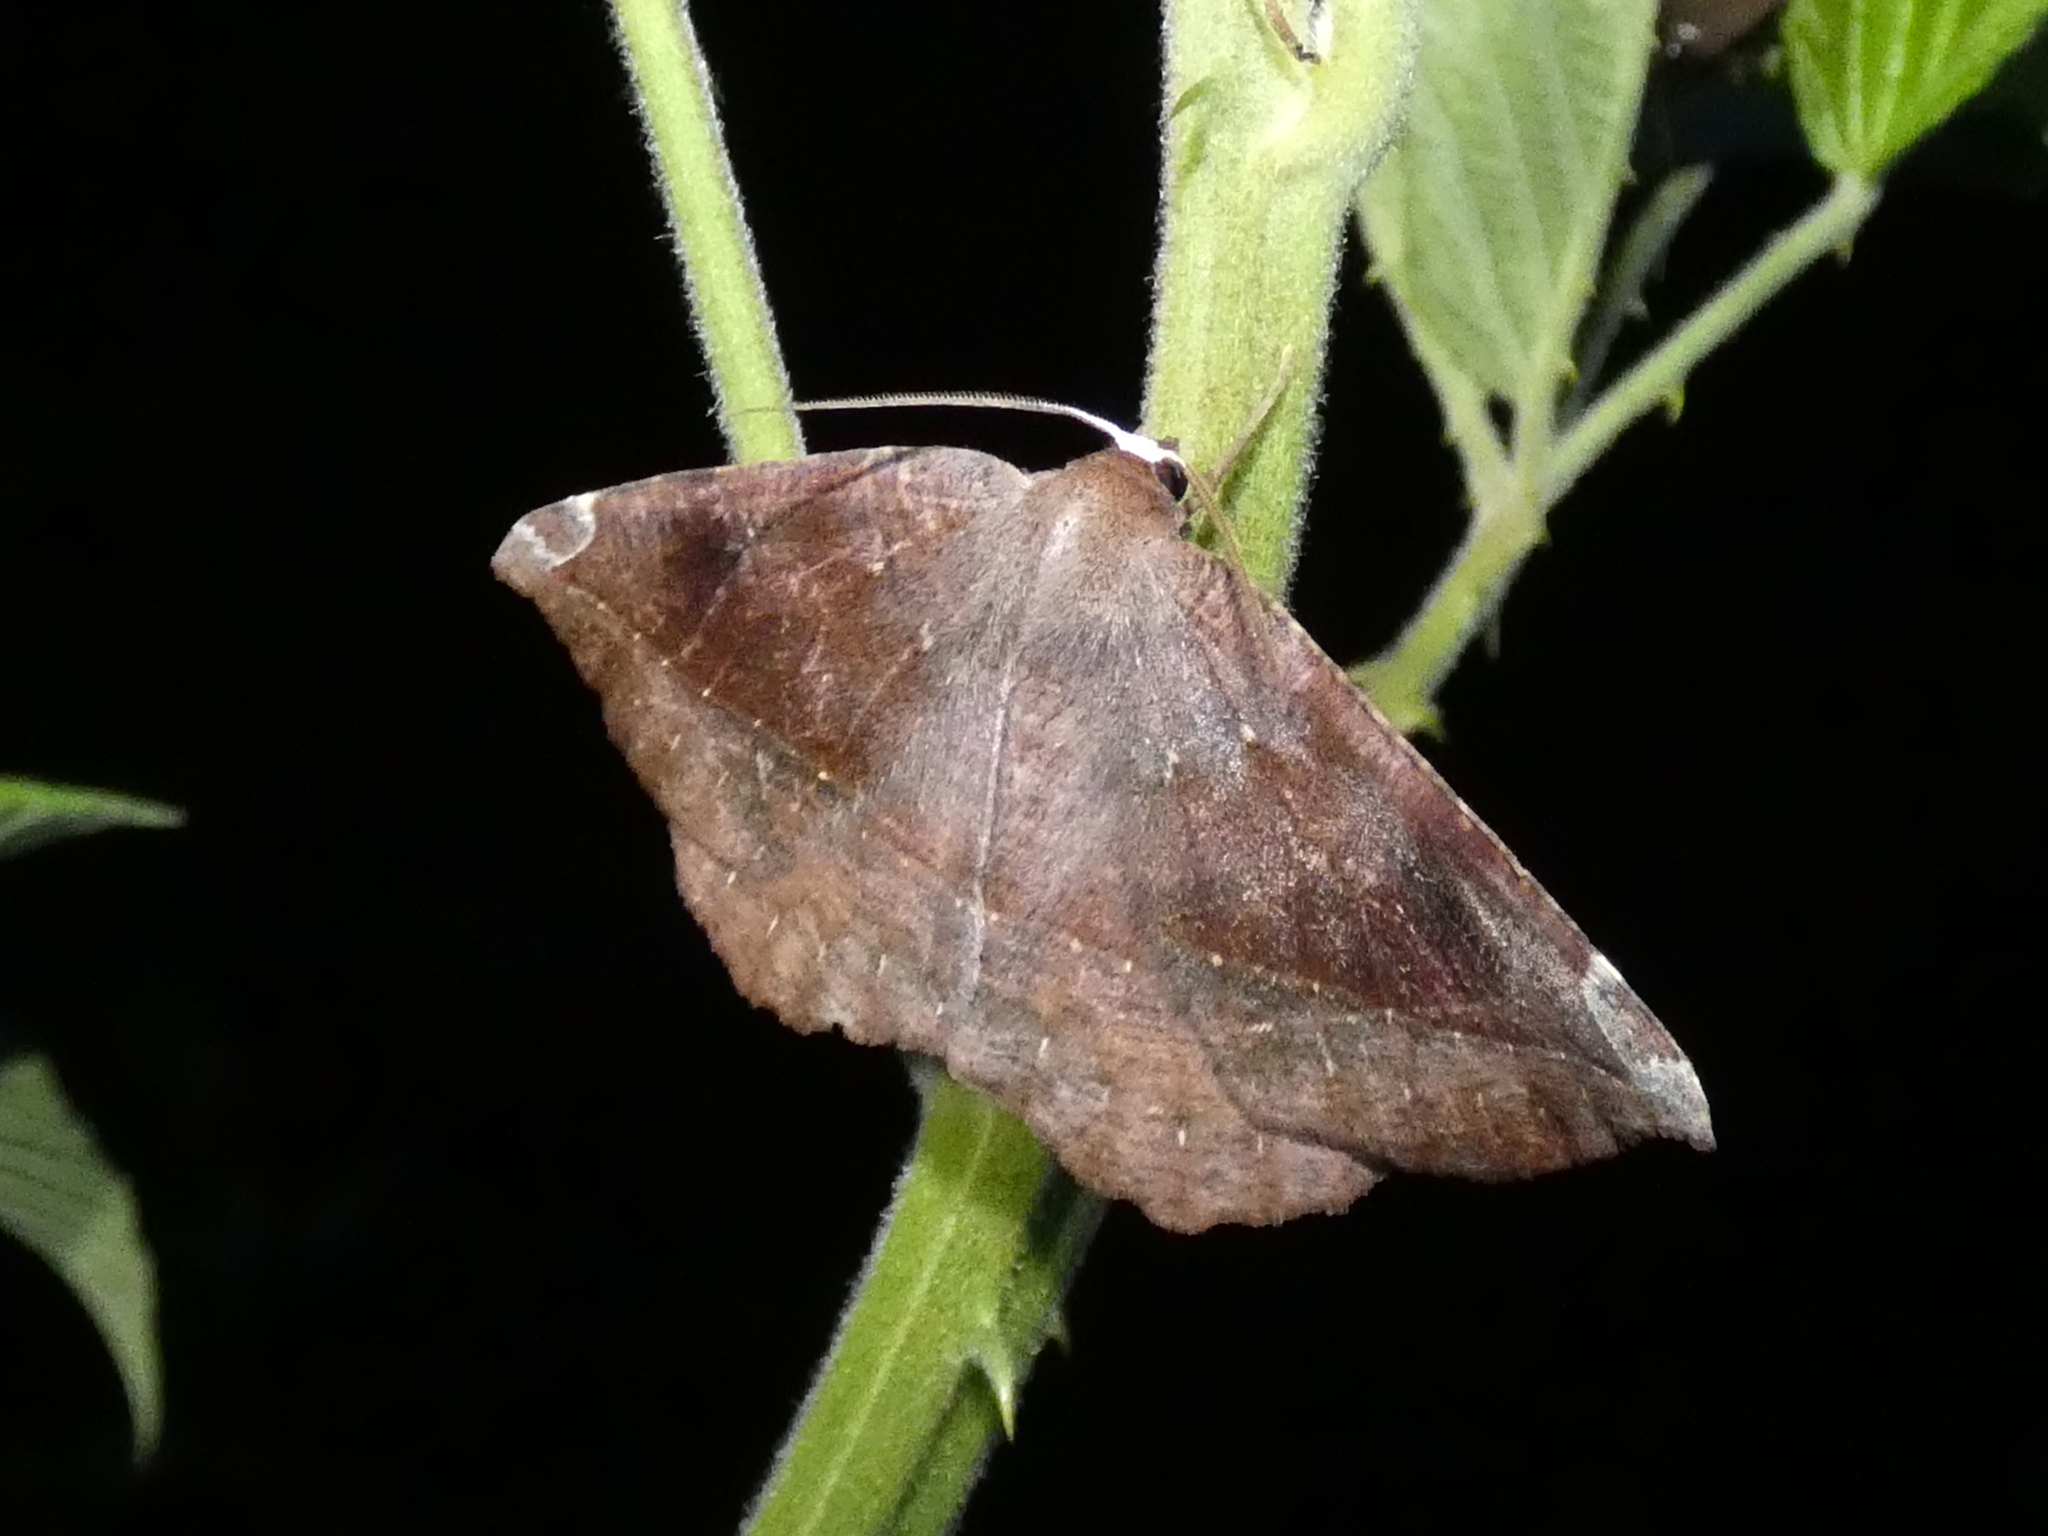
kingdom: Animalia
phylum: Arthropoda
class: Insecta
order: Lepidoptera
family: Geometridae
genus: Eutrapela
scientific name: Eutrapela clemataria
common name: Curved-toothed geometer
